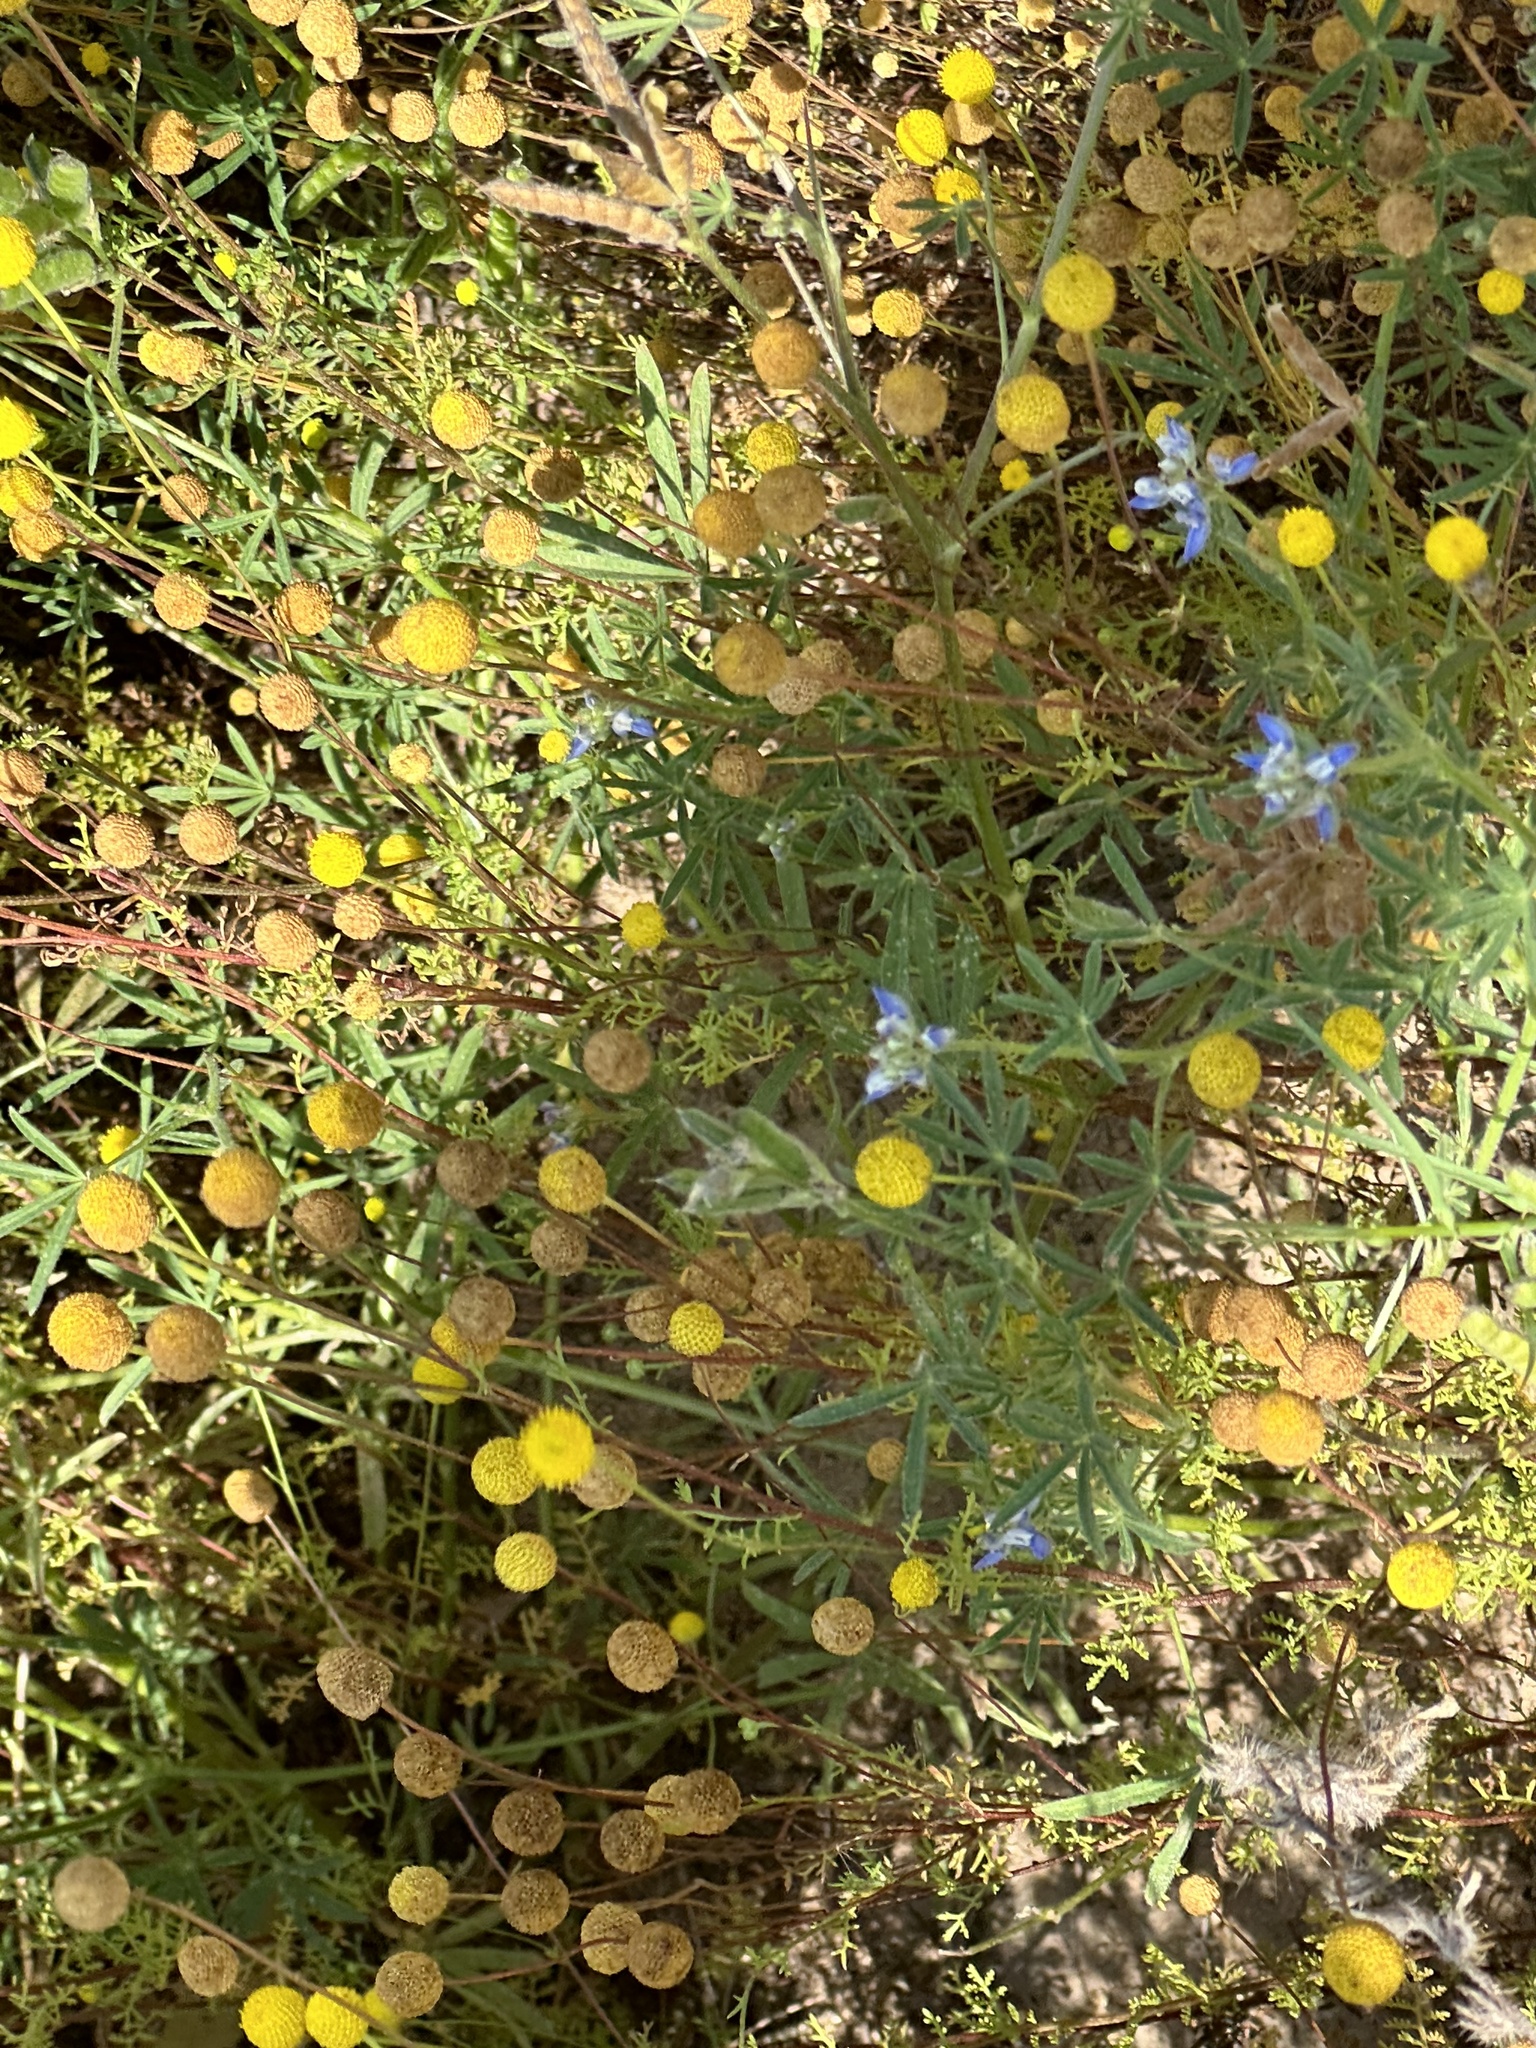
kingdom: Plantae
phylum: Tracheophyta
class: Magnoliopsida
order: Fabales
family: Fabaceae
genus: Lupinus
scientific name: Lupinus bicolor
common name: Miniature lupine
